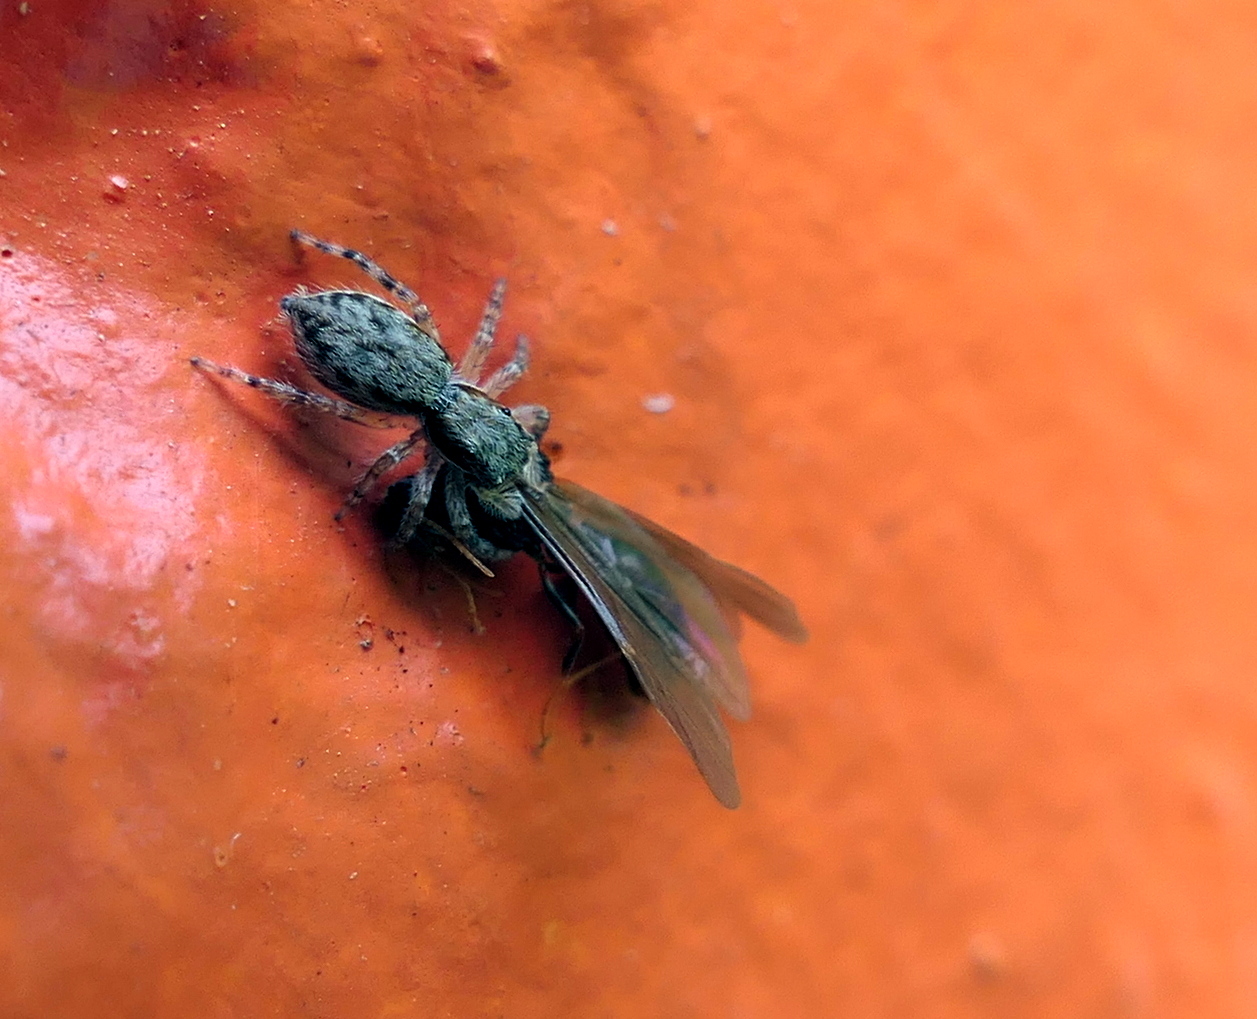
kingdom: Animalia
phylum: Arthropoda
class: Arachnida
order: Araneae
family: Salticidae
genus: Menemerus
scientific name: Menemerus bivittatus
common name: Gray wall jumper
